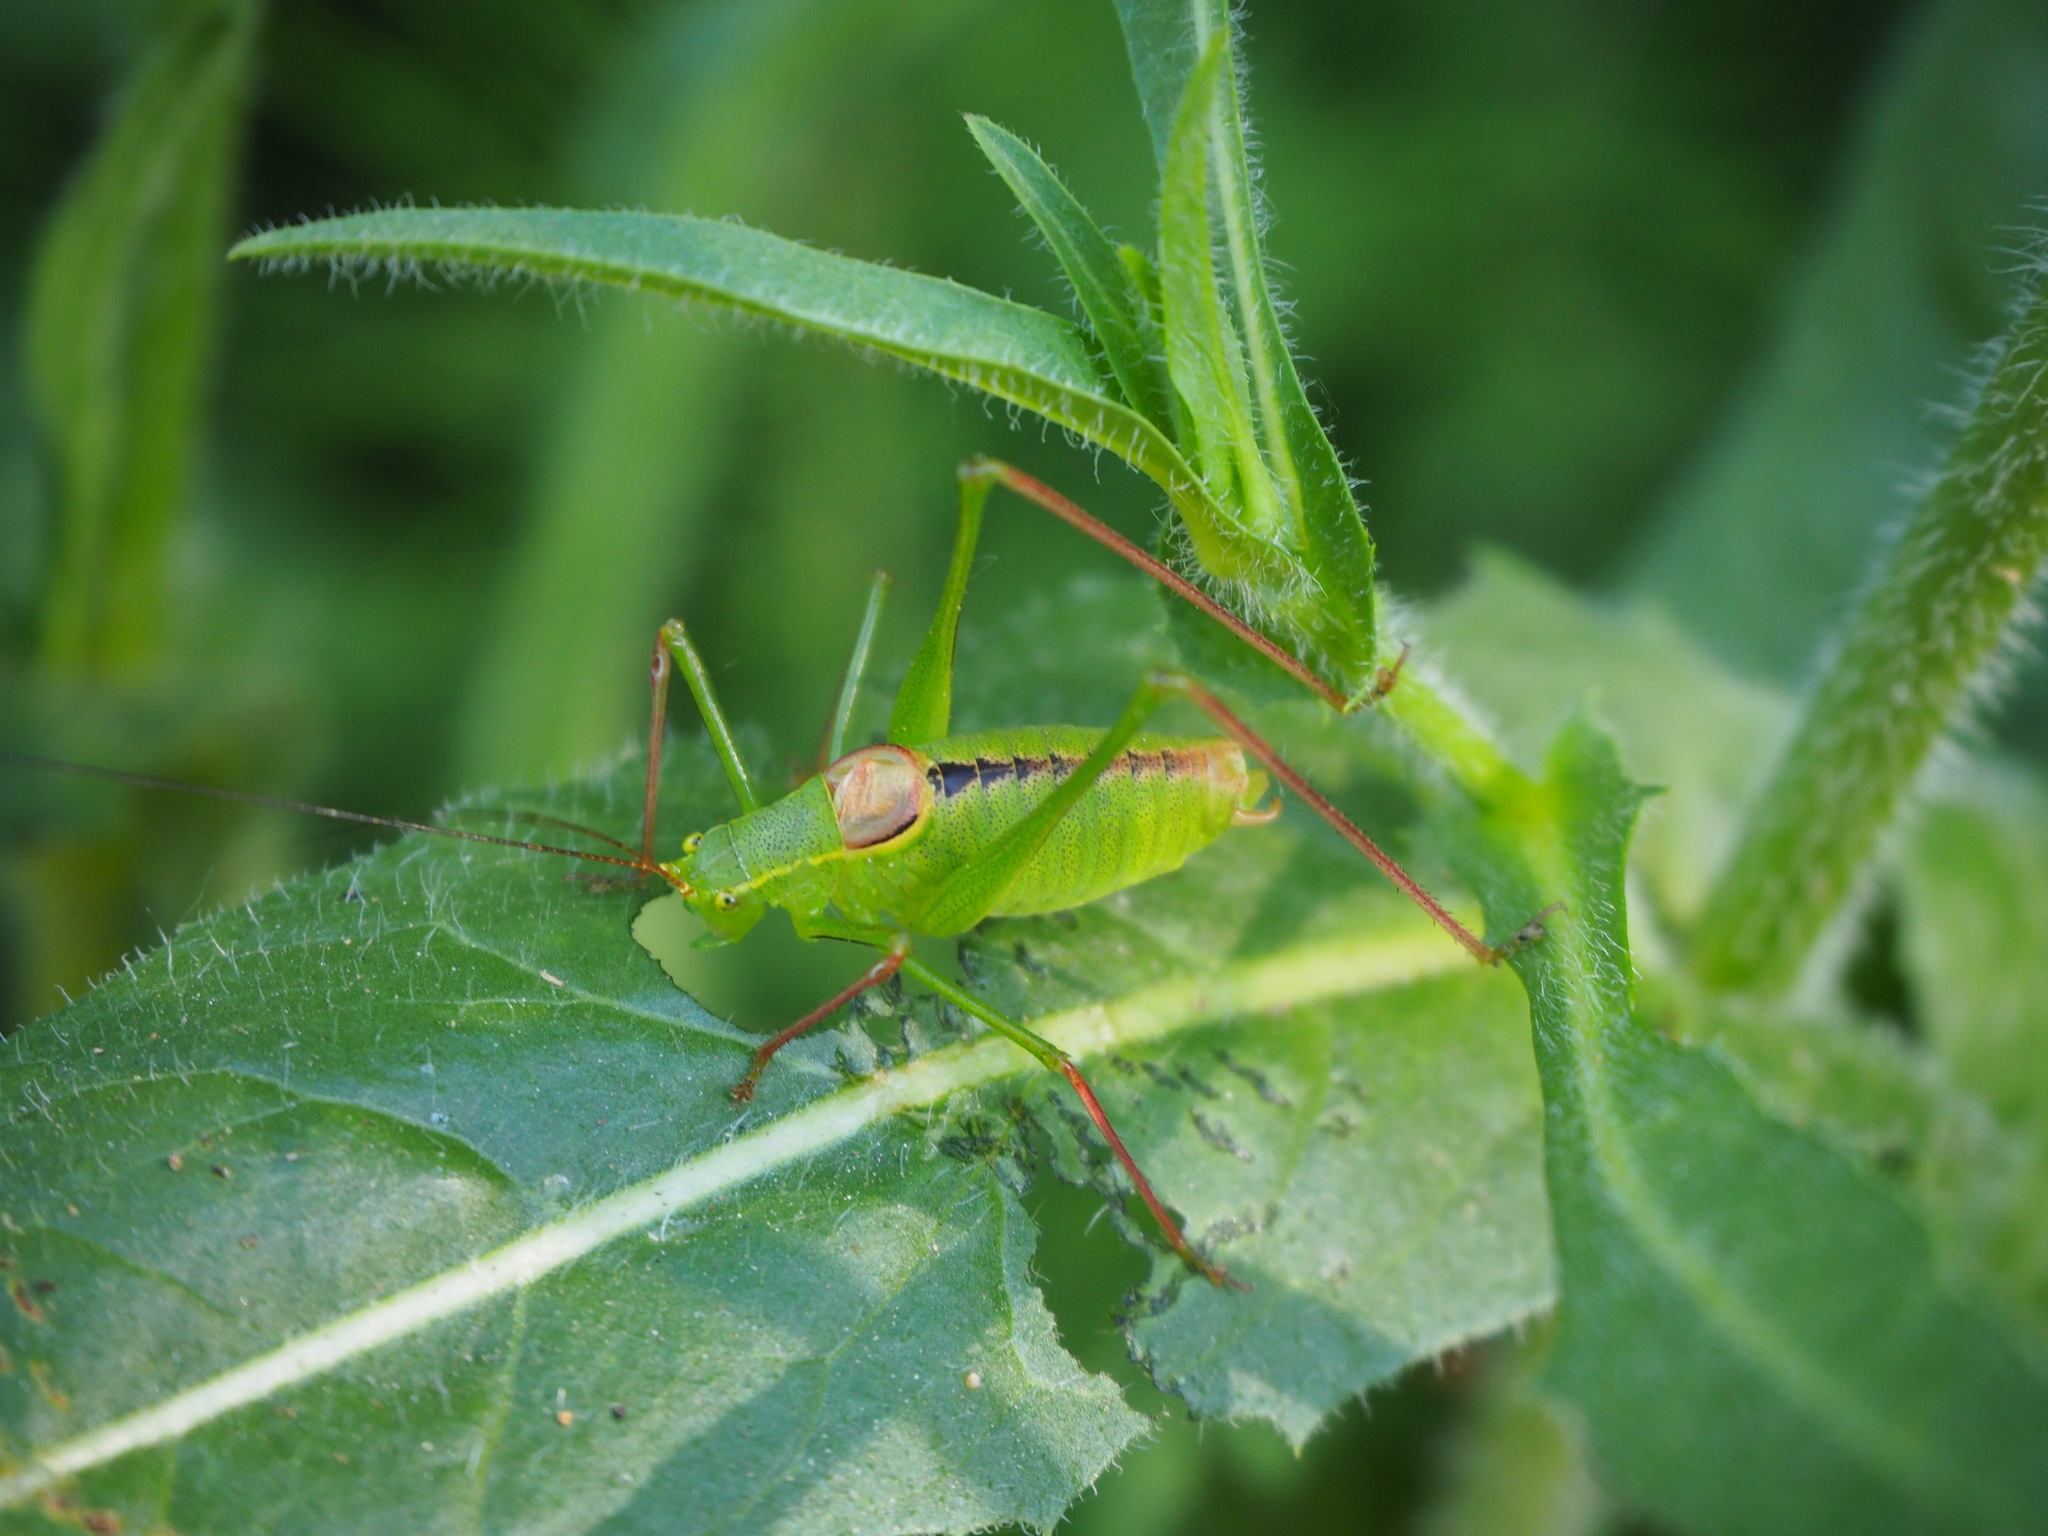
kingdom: Animalia
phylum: Arthropoda
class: Insecta
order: Orthoptera
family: Tettigoniidae
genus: Leptophyes
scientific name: Leptophyes laticauda
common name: Long-tailed speckled bush-cricket
